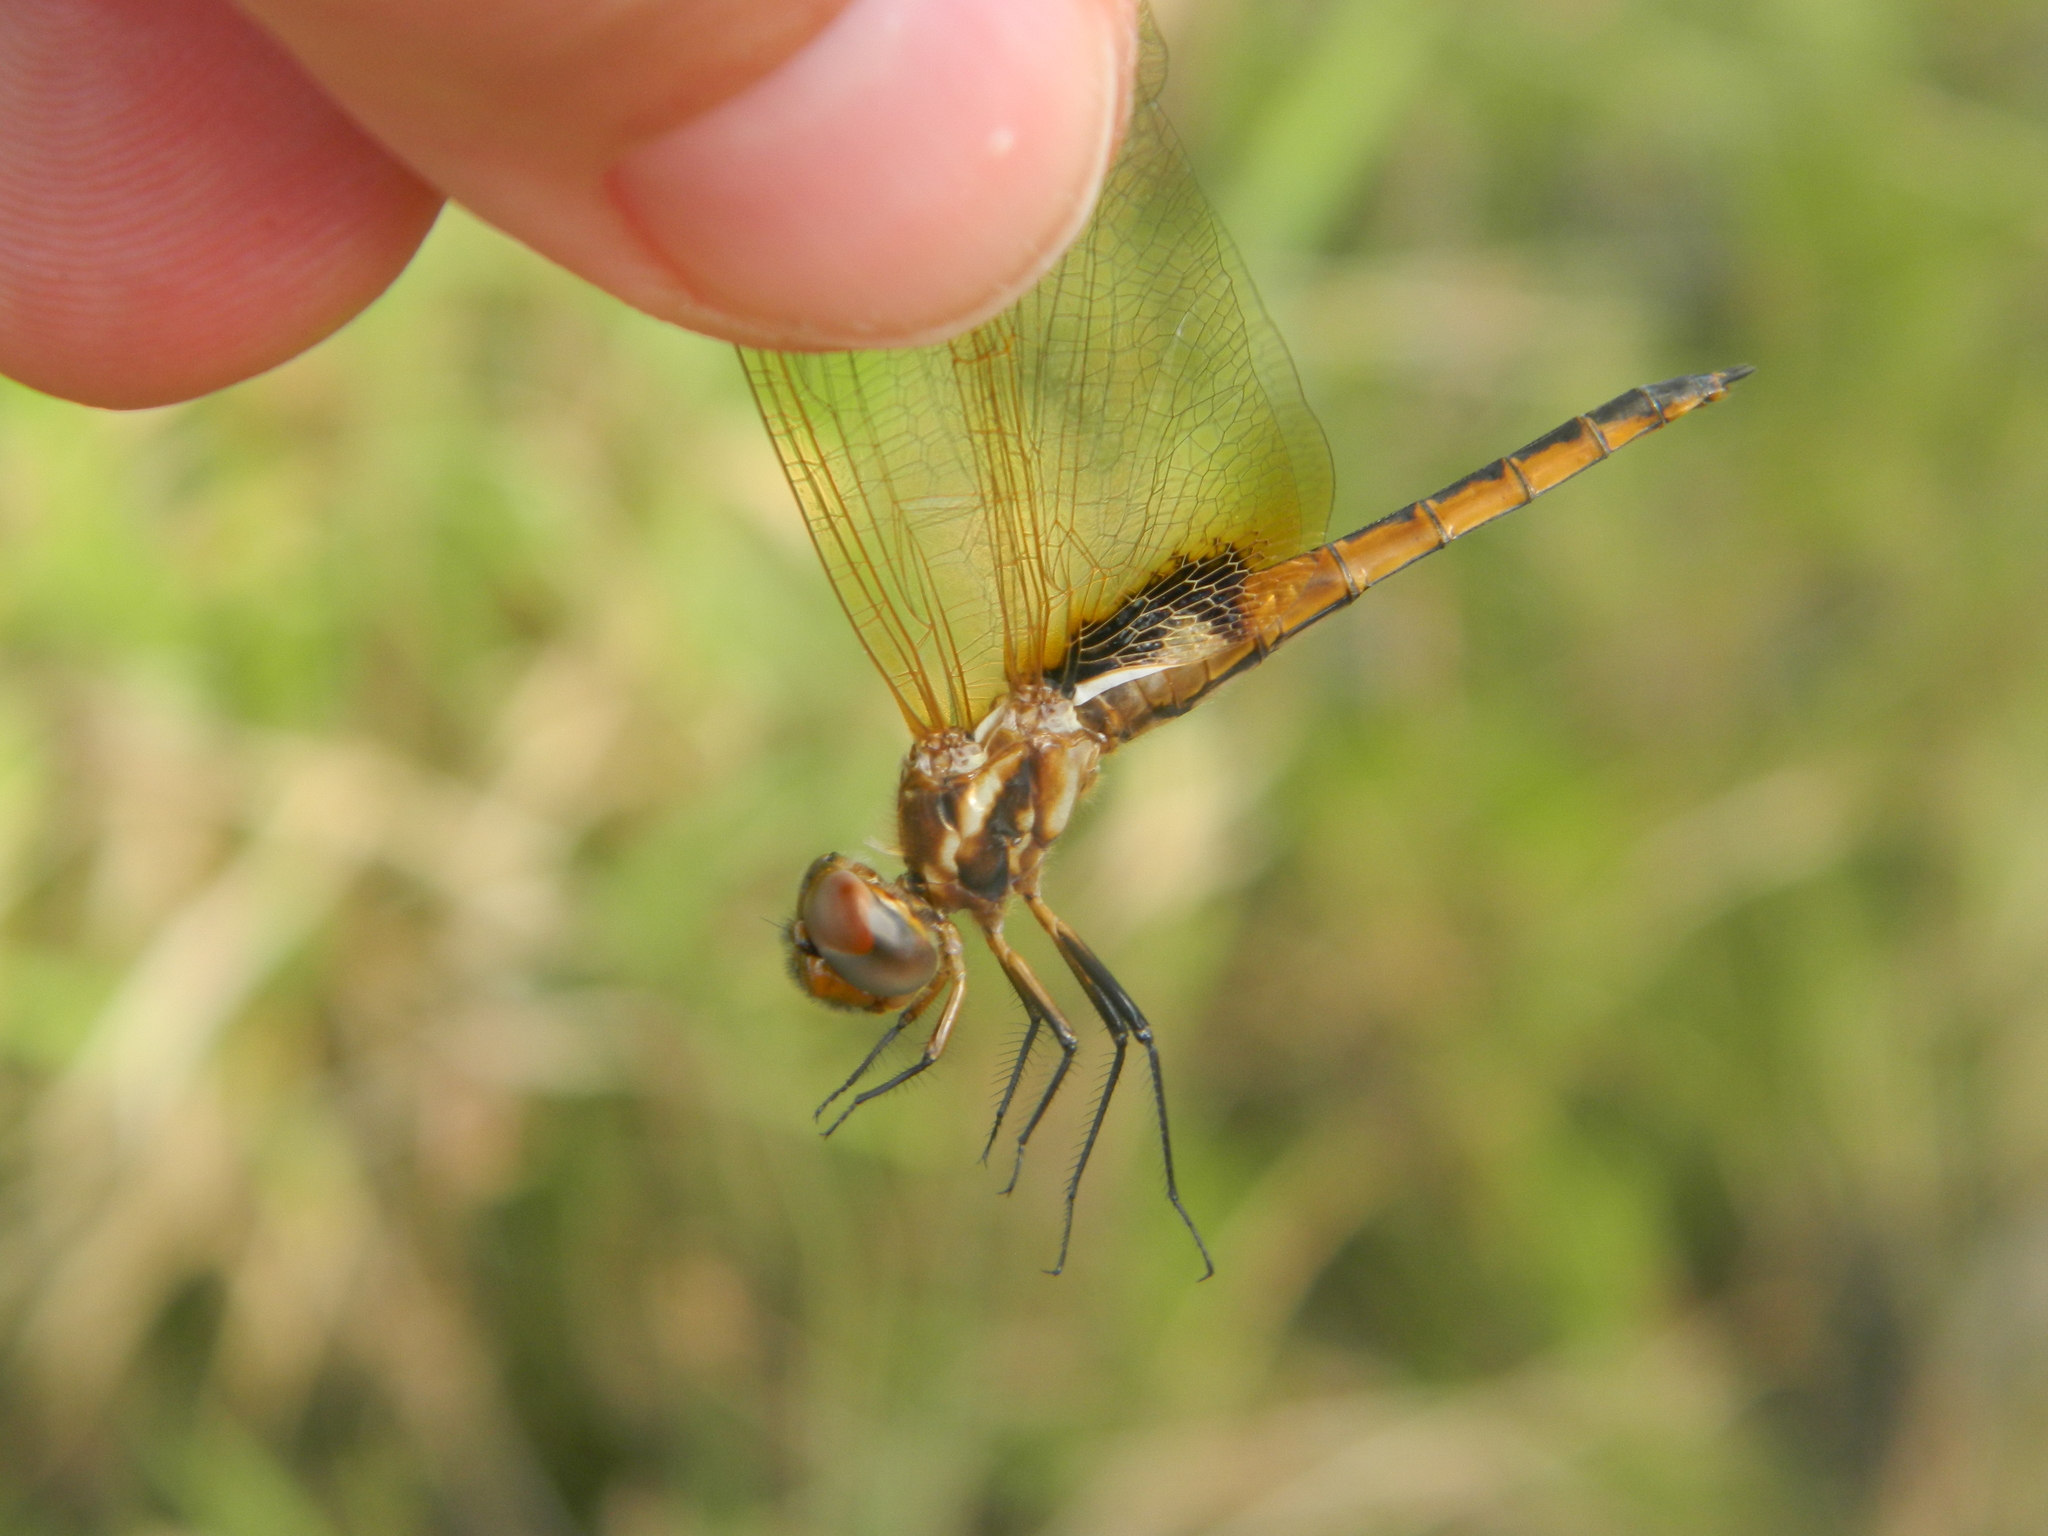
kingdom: Animalia
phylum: Arthropoda
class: Insecta
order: Odonata
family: Libellulidae
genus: Miathyria
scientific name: Miathyria marcella
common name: Hyacinth glider
